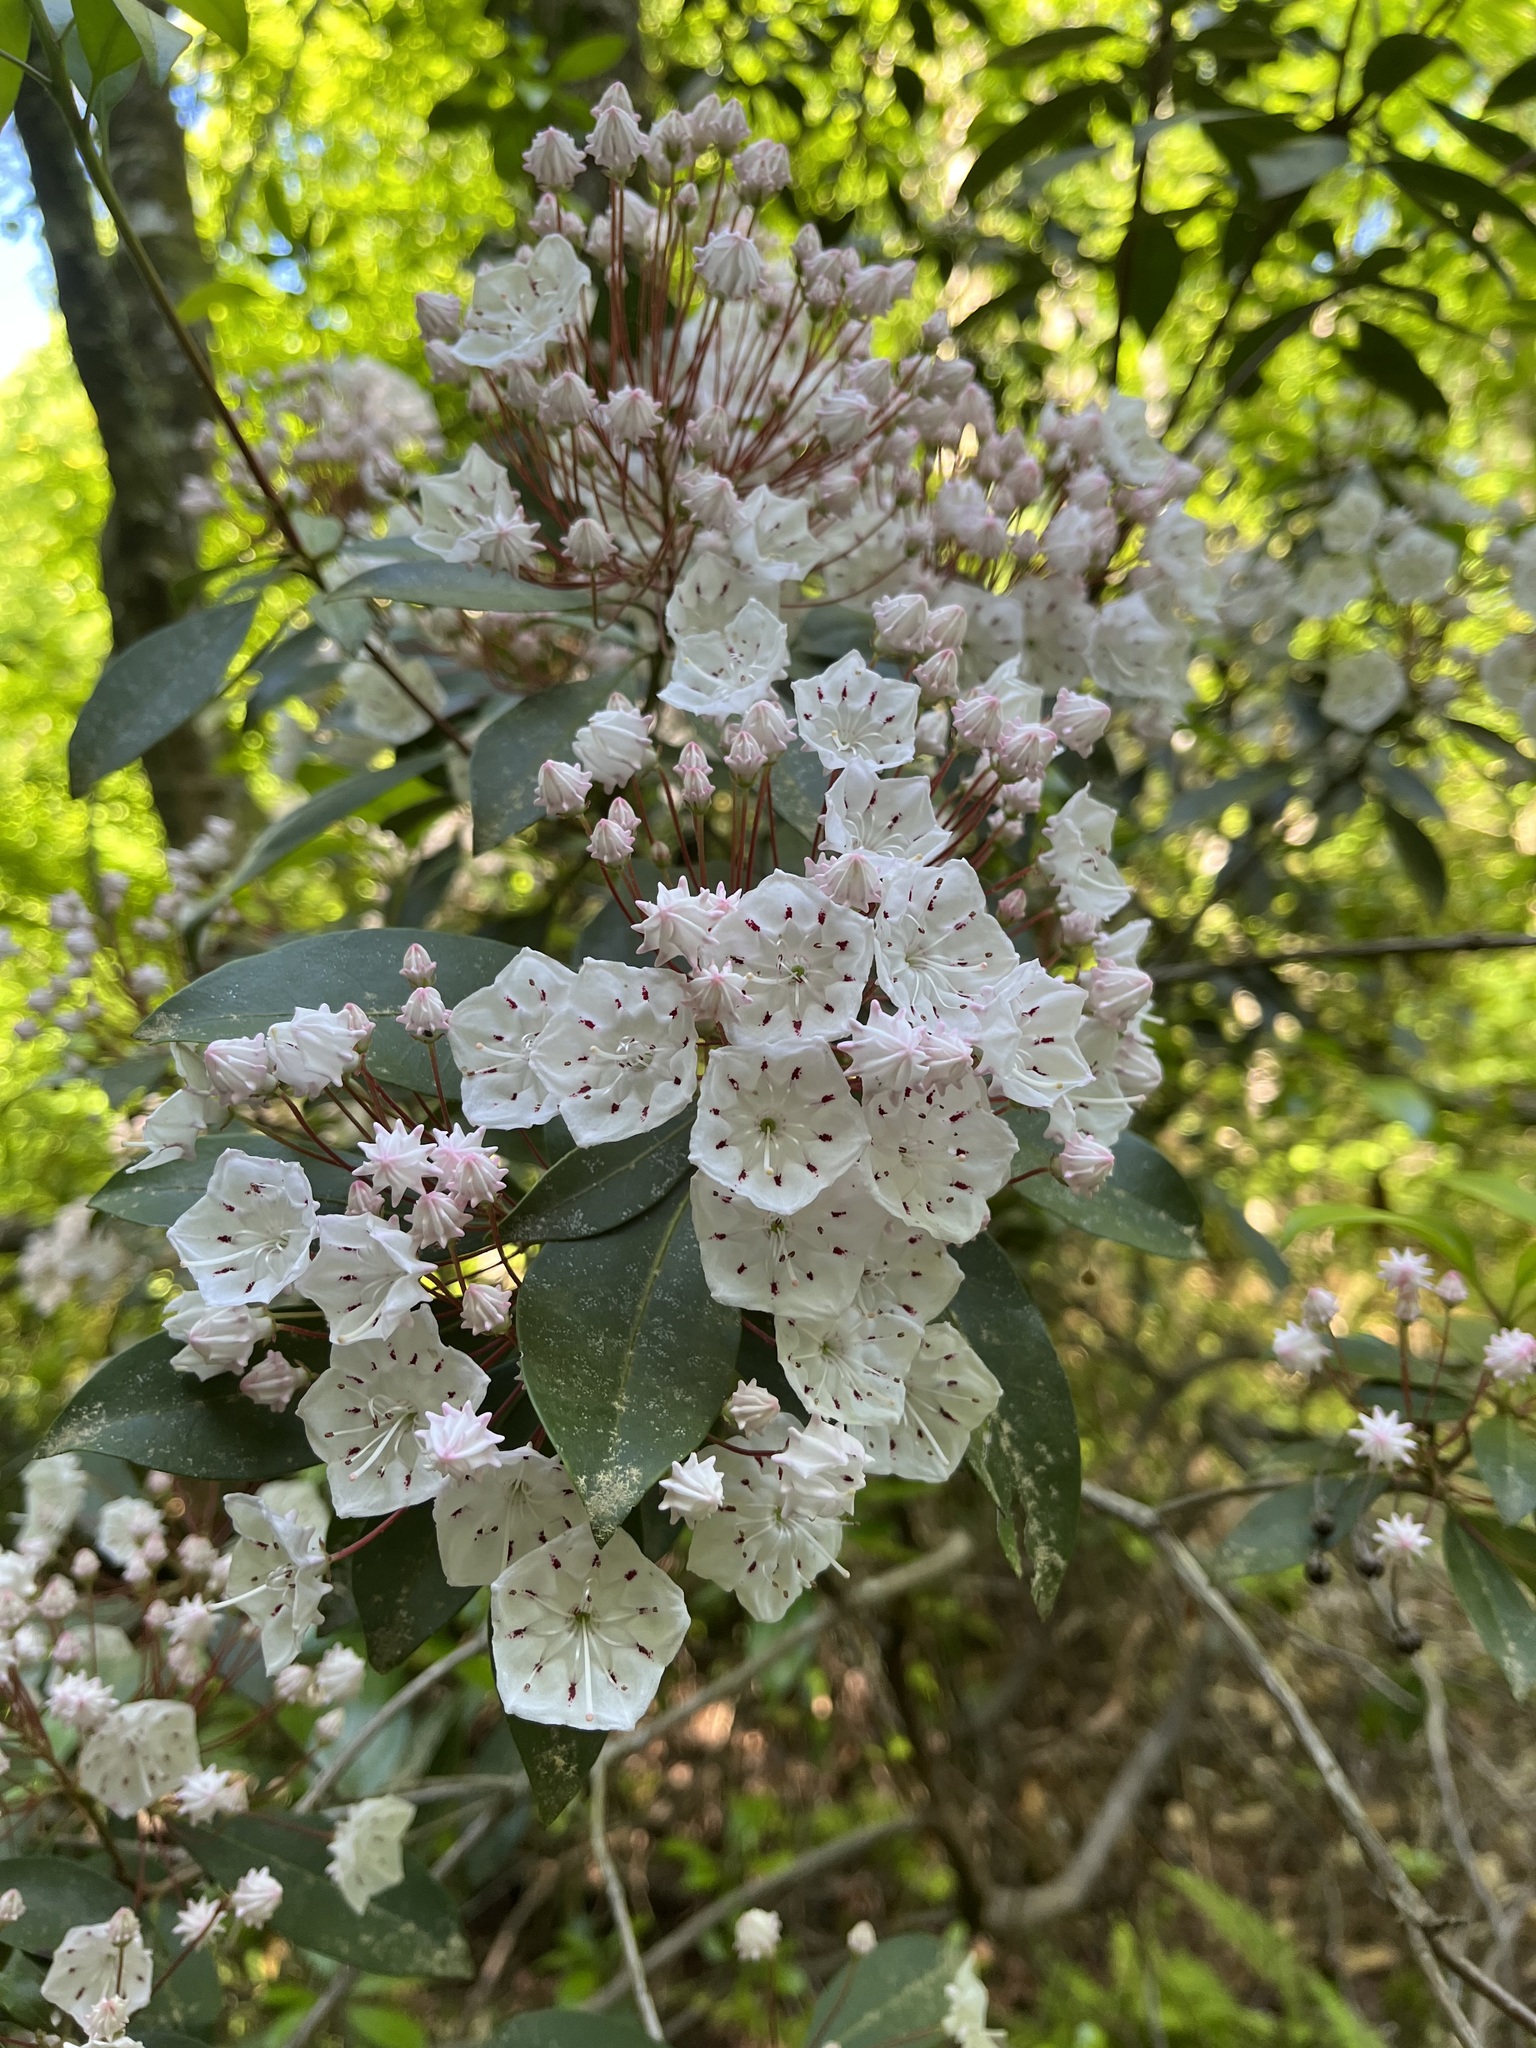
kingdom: Plantae
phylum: Tracheophyta
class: Magnoliopsida
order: Ericales
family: Ericaceae
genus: Kalmia
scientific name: Kalmia latifolia
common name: Mountain-laurel
